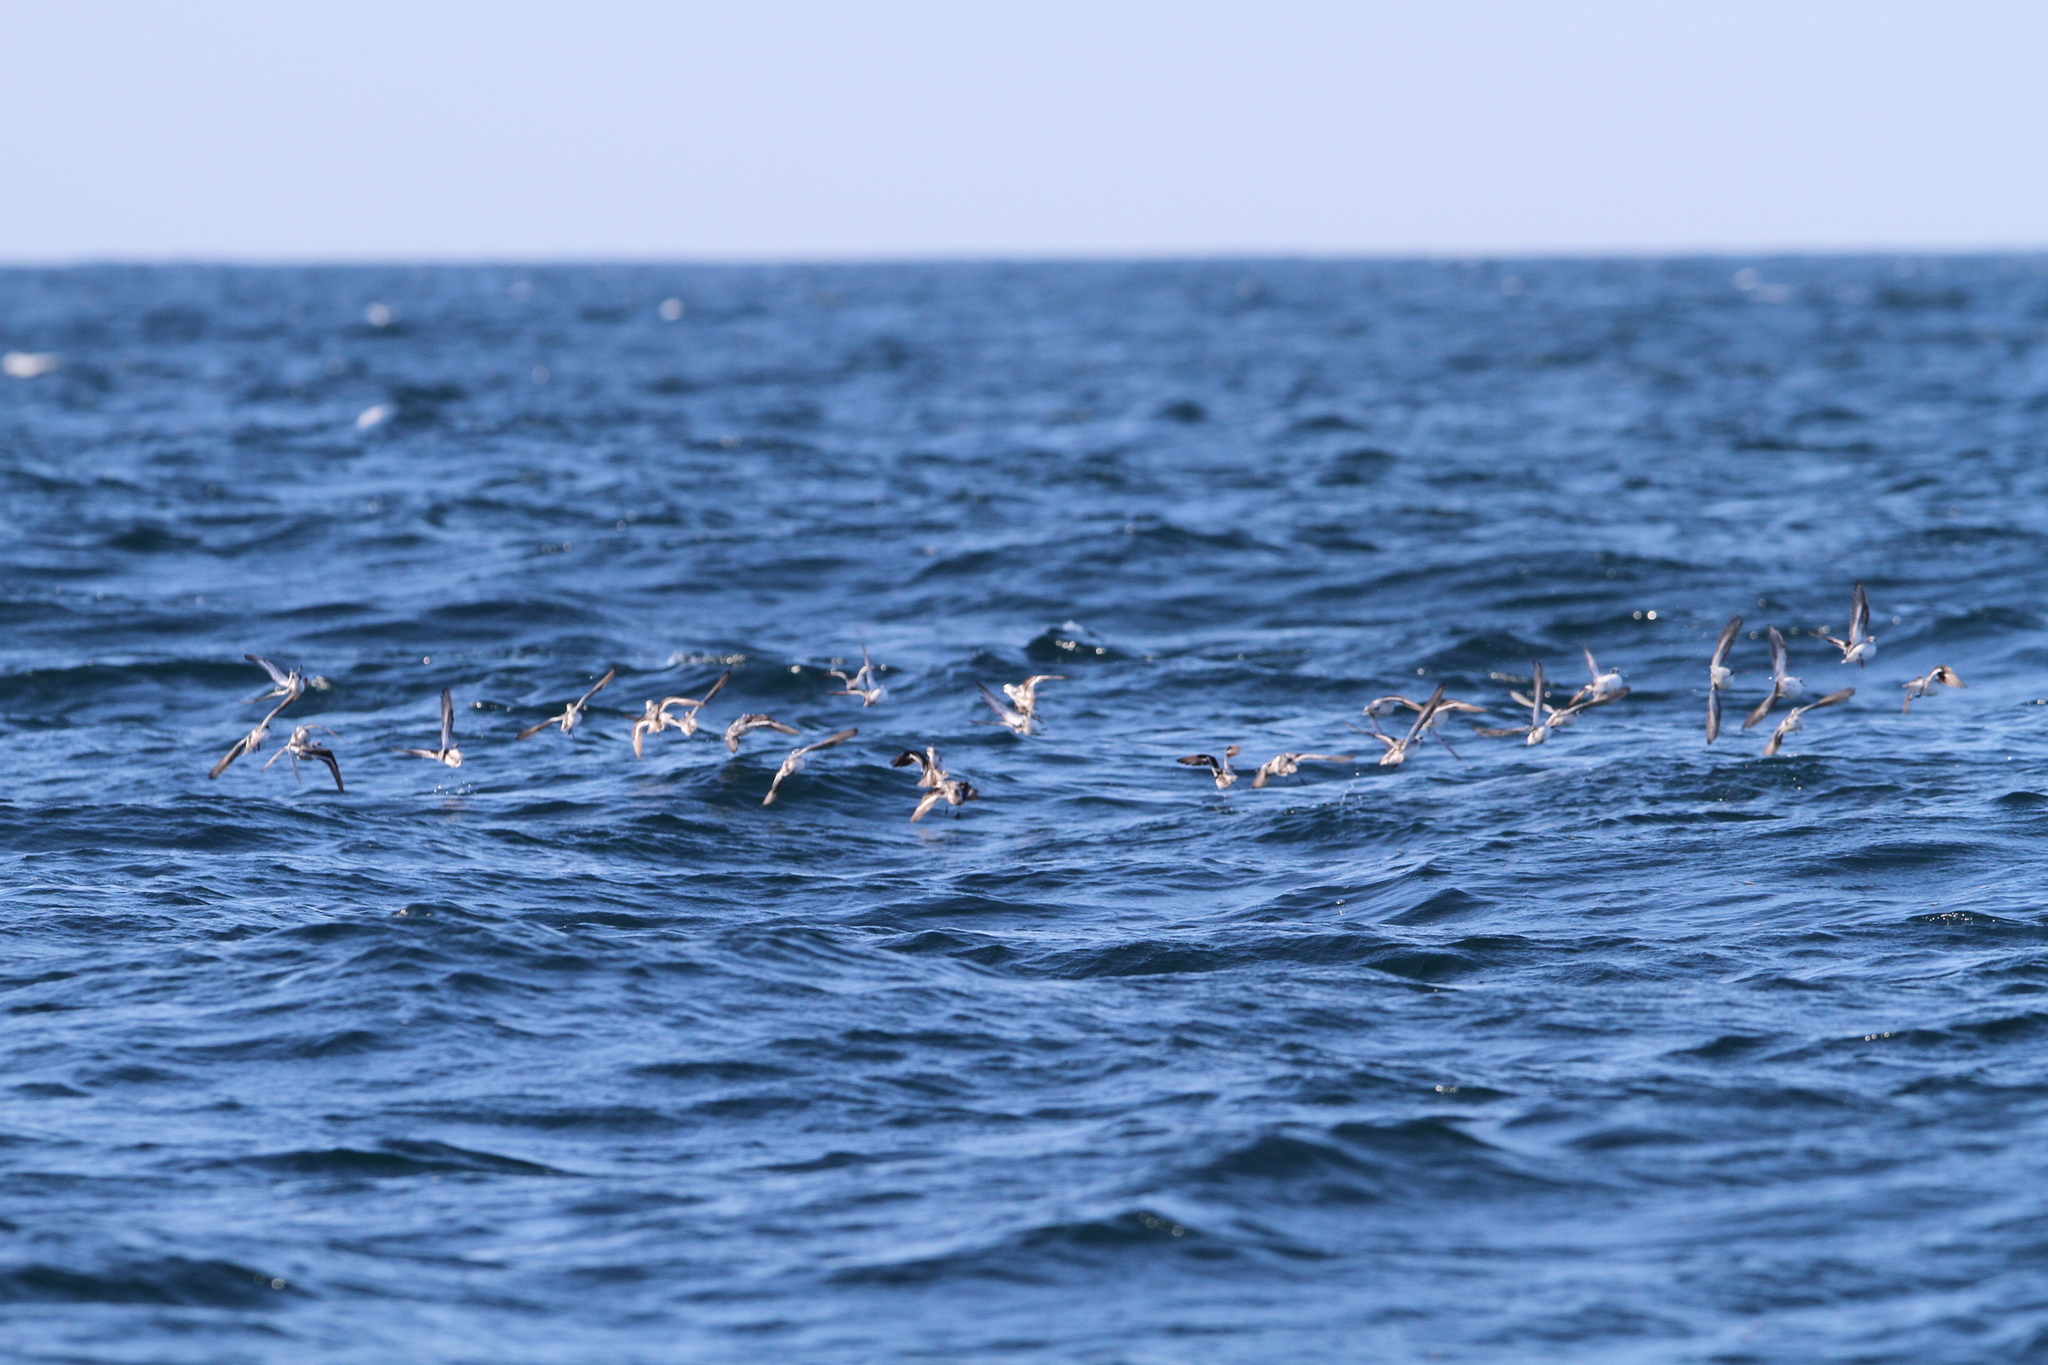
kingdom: Animalia
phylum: Chordata
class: Aves
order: Charadriiformes
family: Scolopacidae
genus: Phalaropus
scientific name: Phalaropus lobatus
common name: Red-necked phalarope
